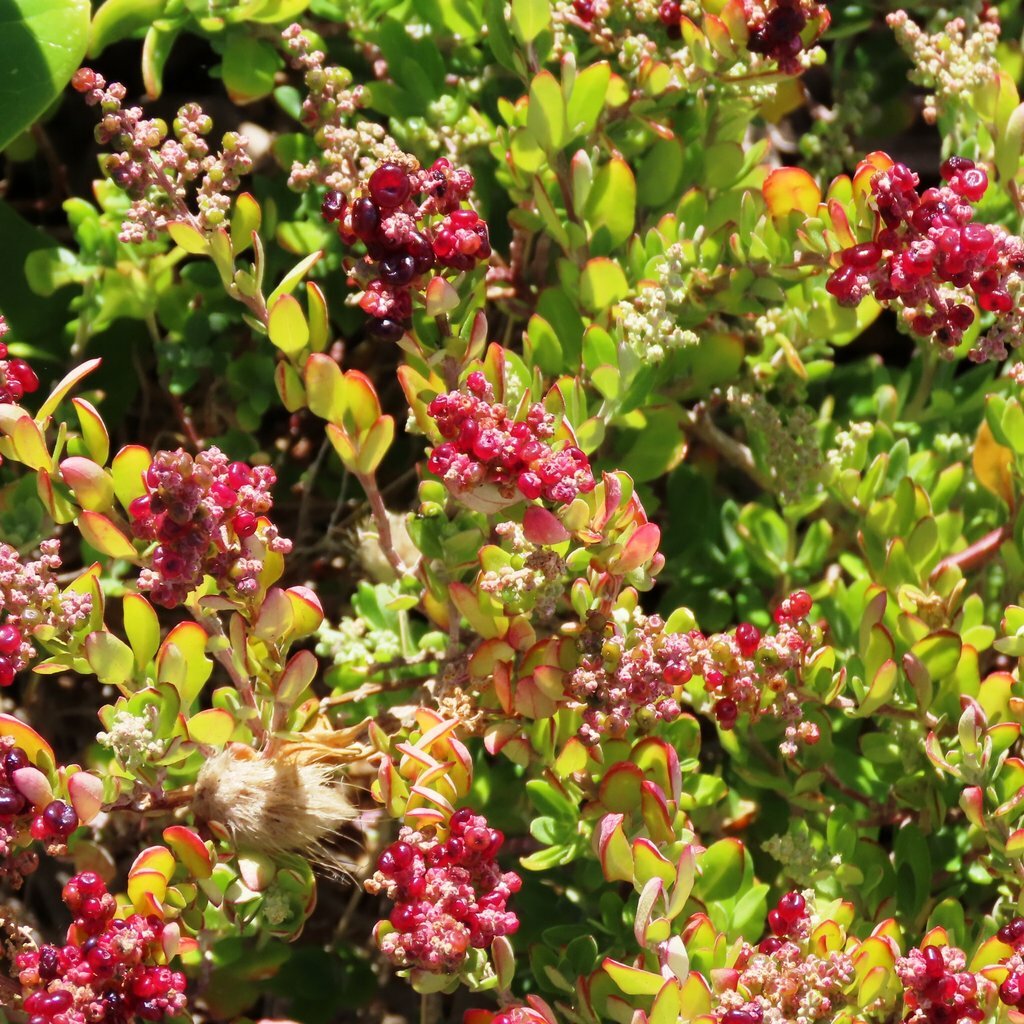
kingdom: Plantae
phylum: Tracheophyta
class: Magnoliopsida
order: Caryophyllales
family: Amaranthaceae
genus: Chenopodium
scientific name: Chenopodium candolleanum
